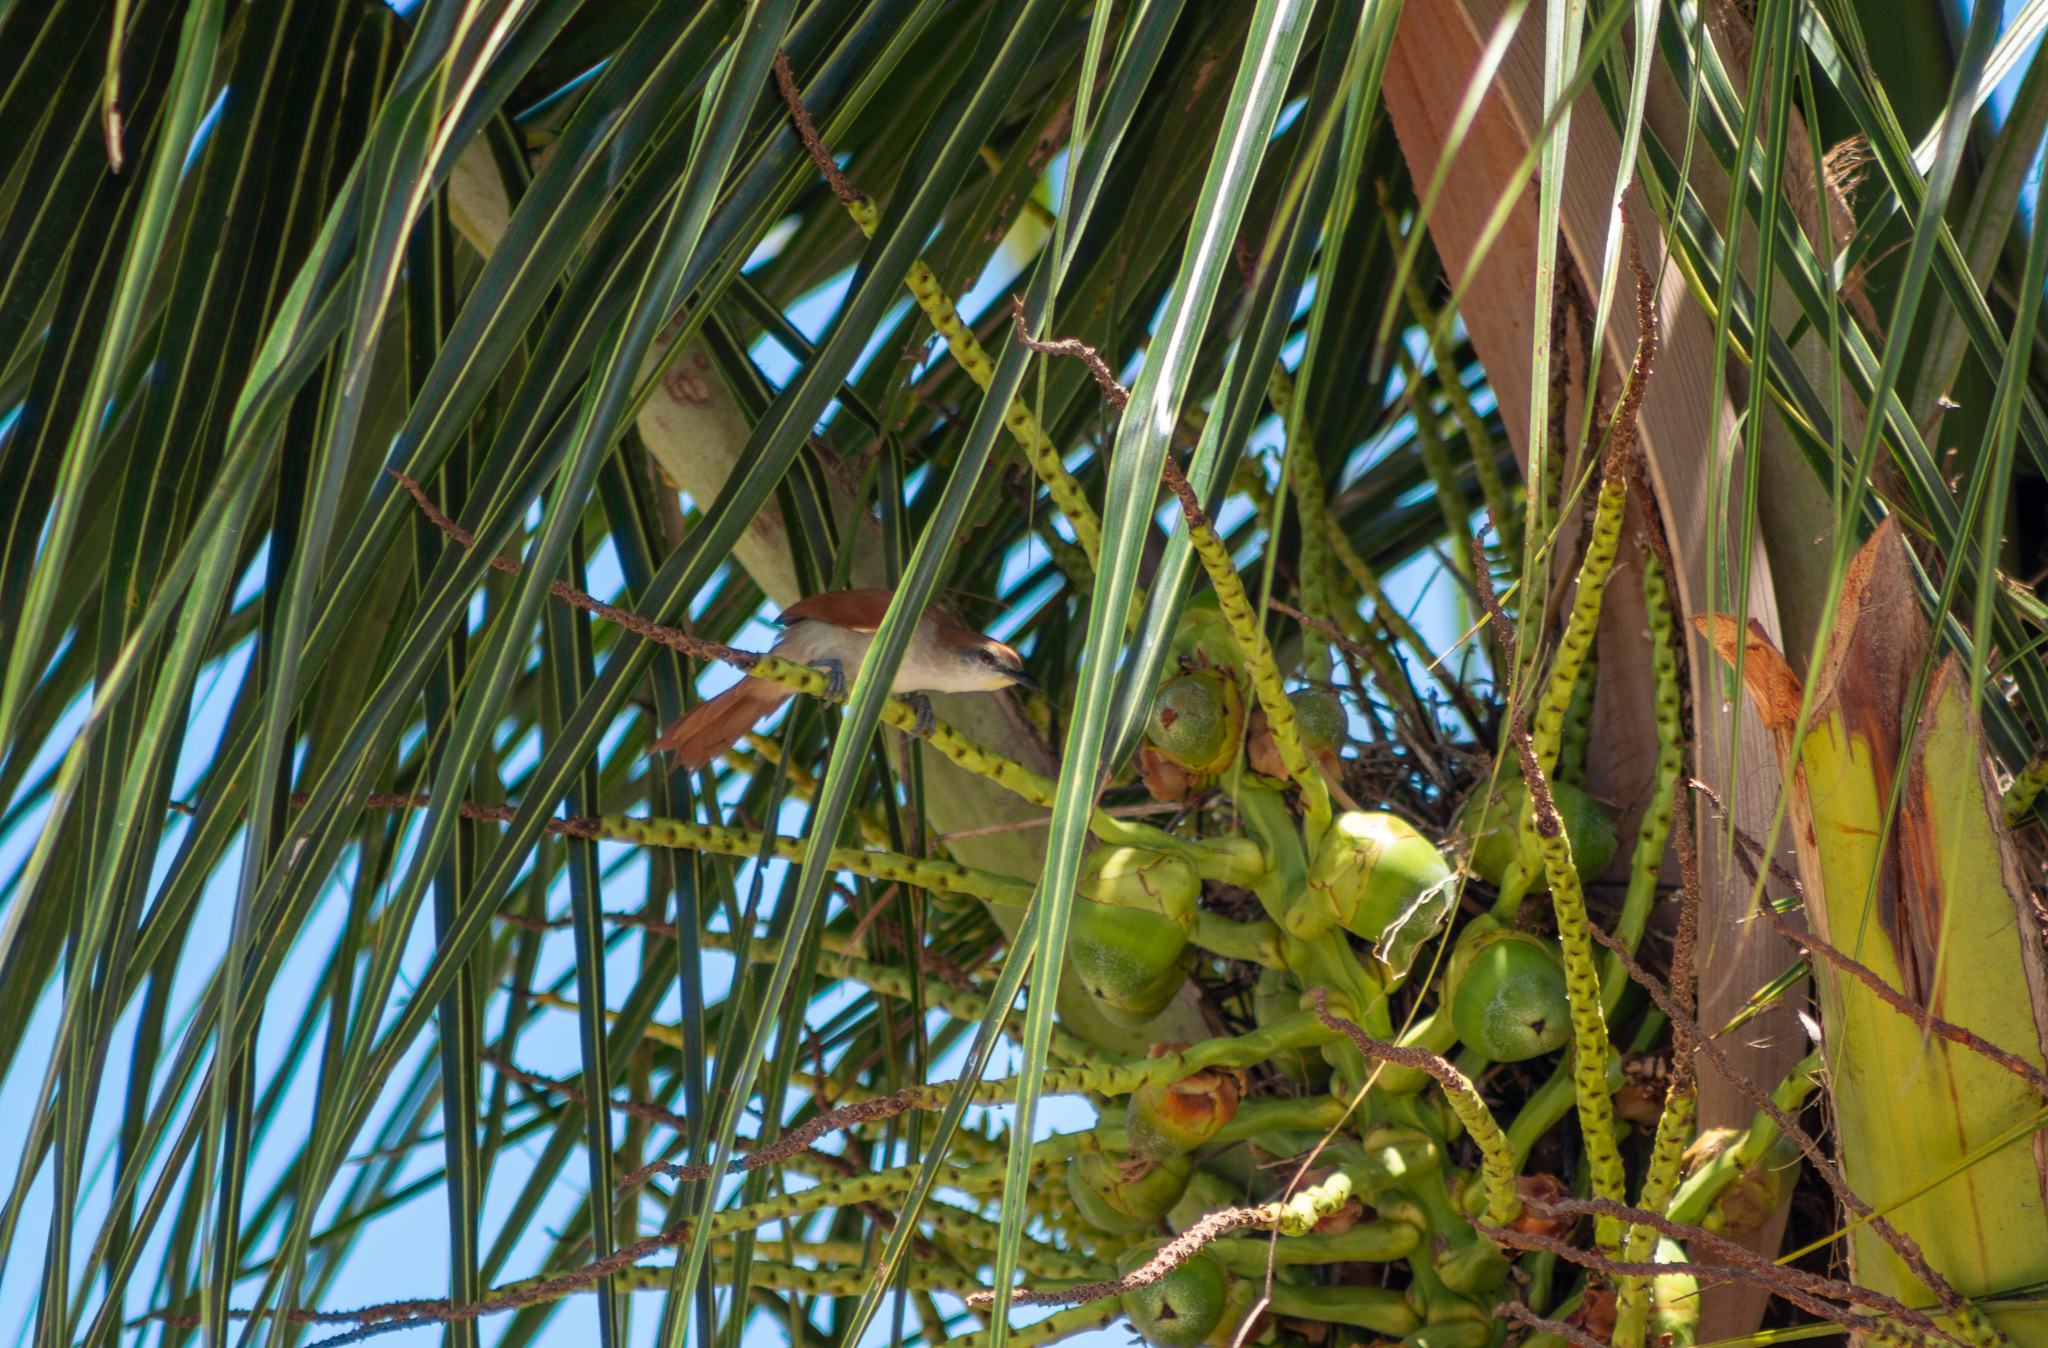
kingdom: Animalia
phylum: Chordata
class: Aves
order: Passeriformes
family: Furnariidae
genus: Certhiaxis
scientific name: Certhiaxis cinnamomeus
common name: Yellow-chinned spinetail
